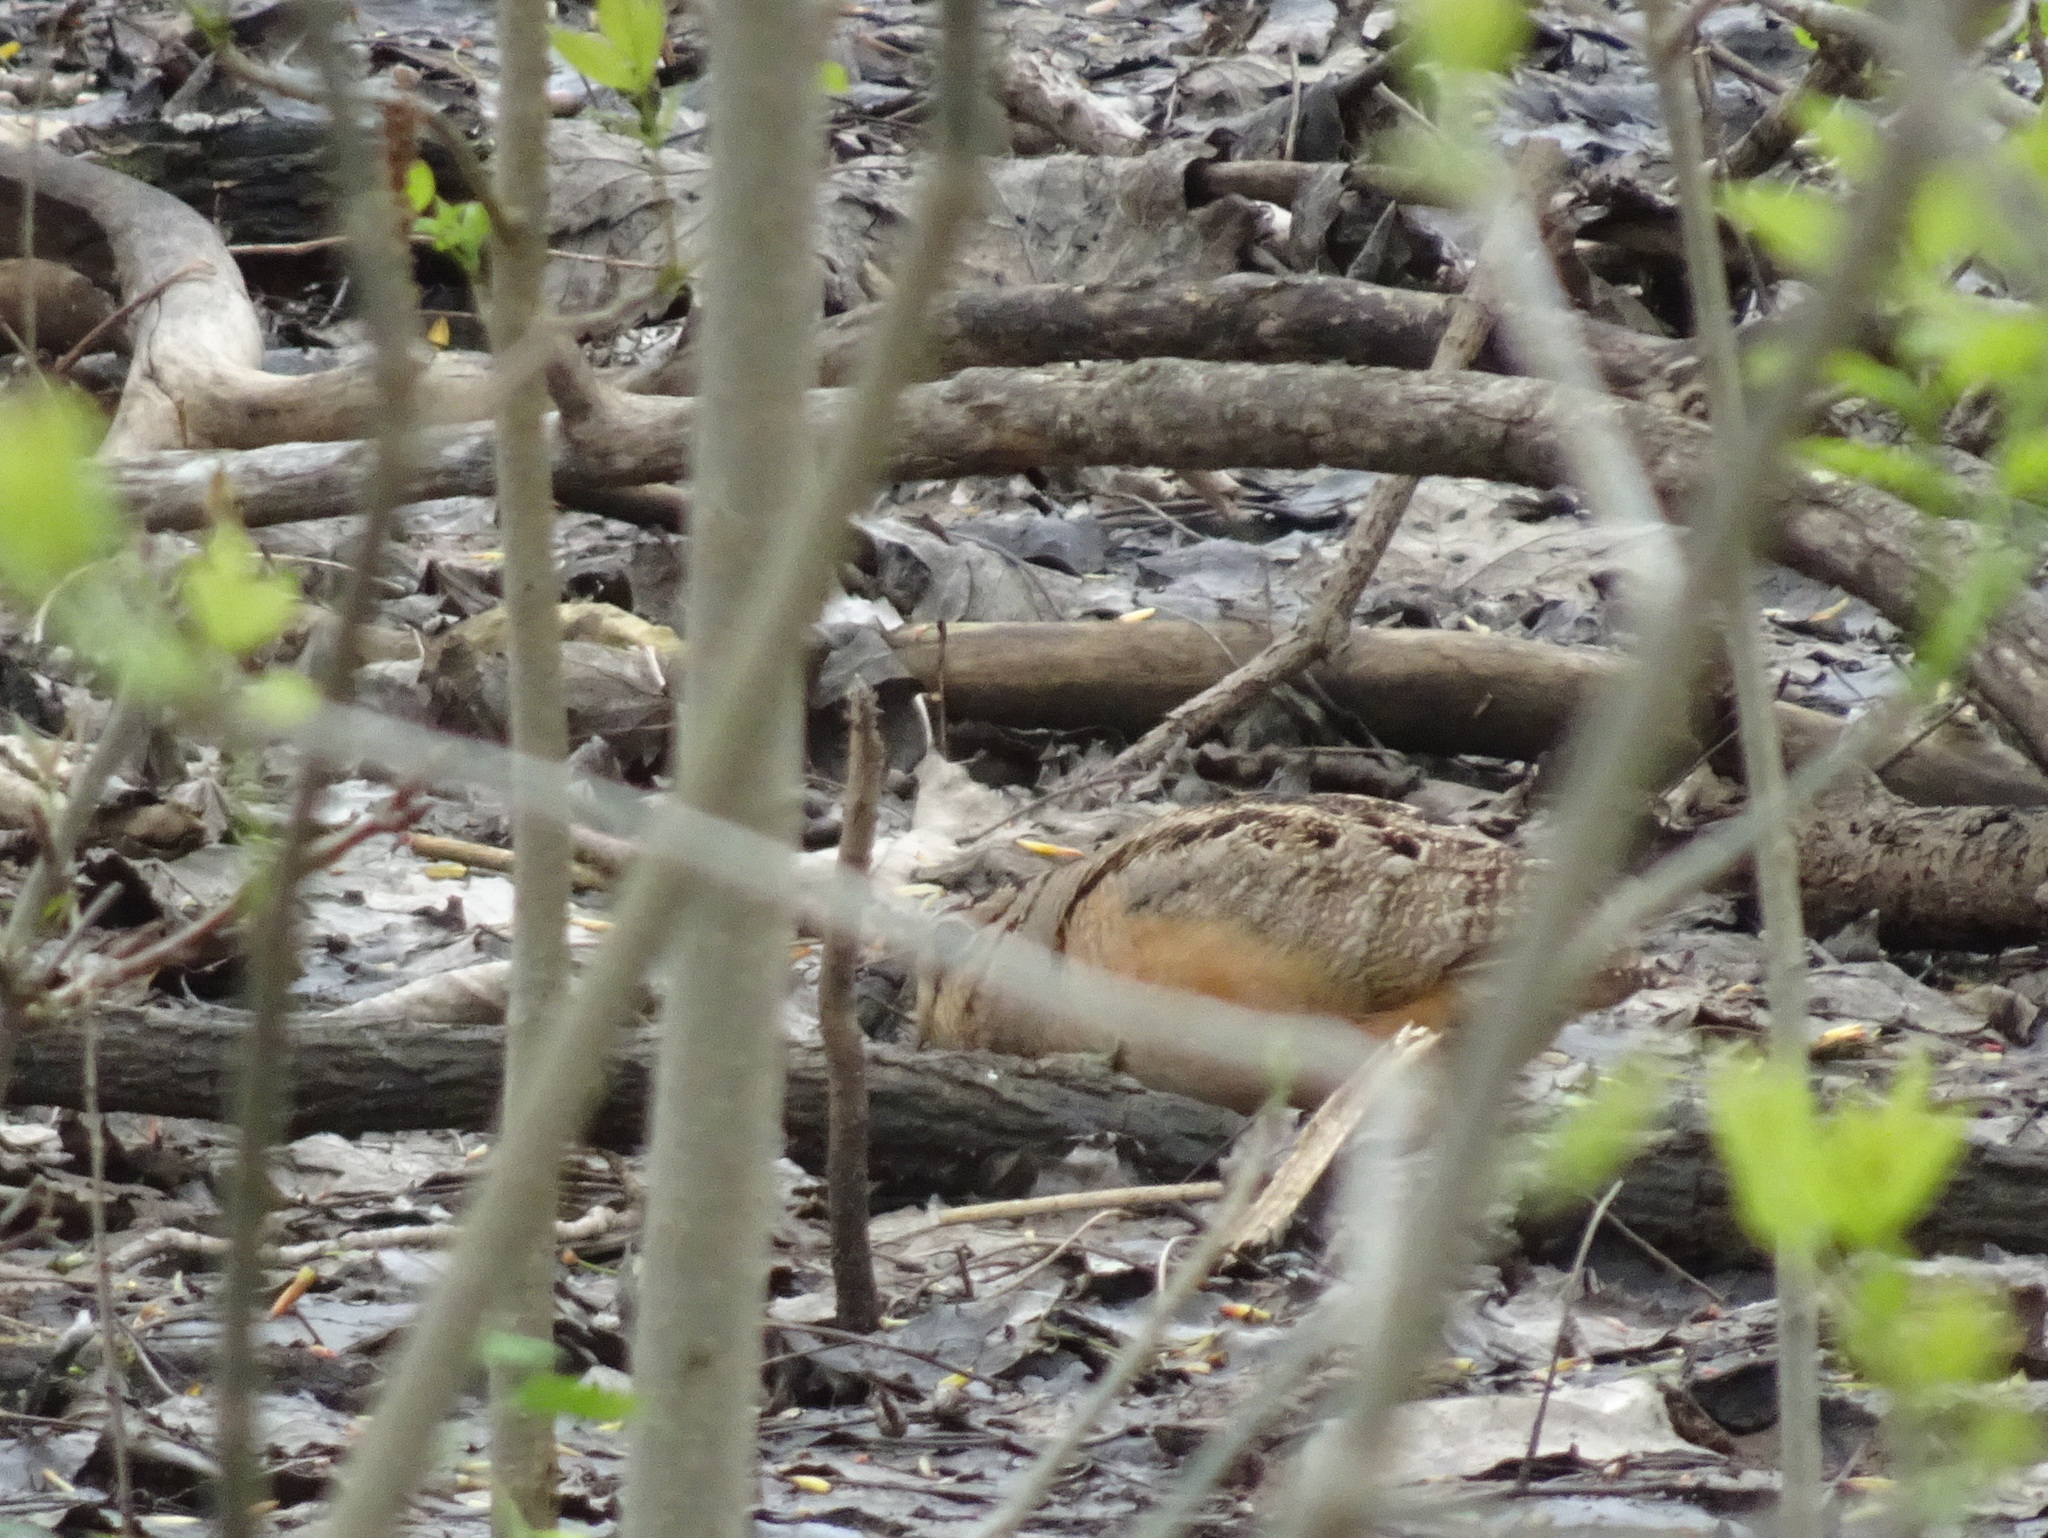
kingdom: Animalia
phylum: Chordata
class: Aves
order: Charadriiformes
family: Scolopacidae
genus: Scolopax
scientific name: Scolopax minor
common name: American woodcock
